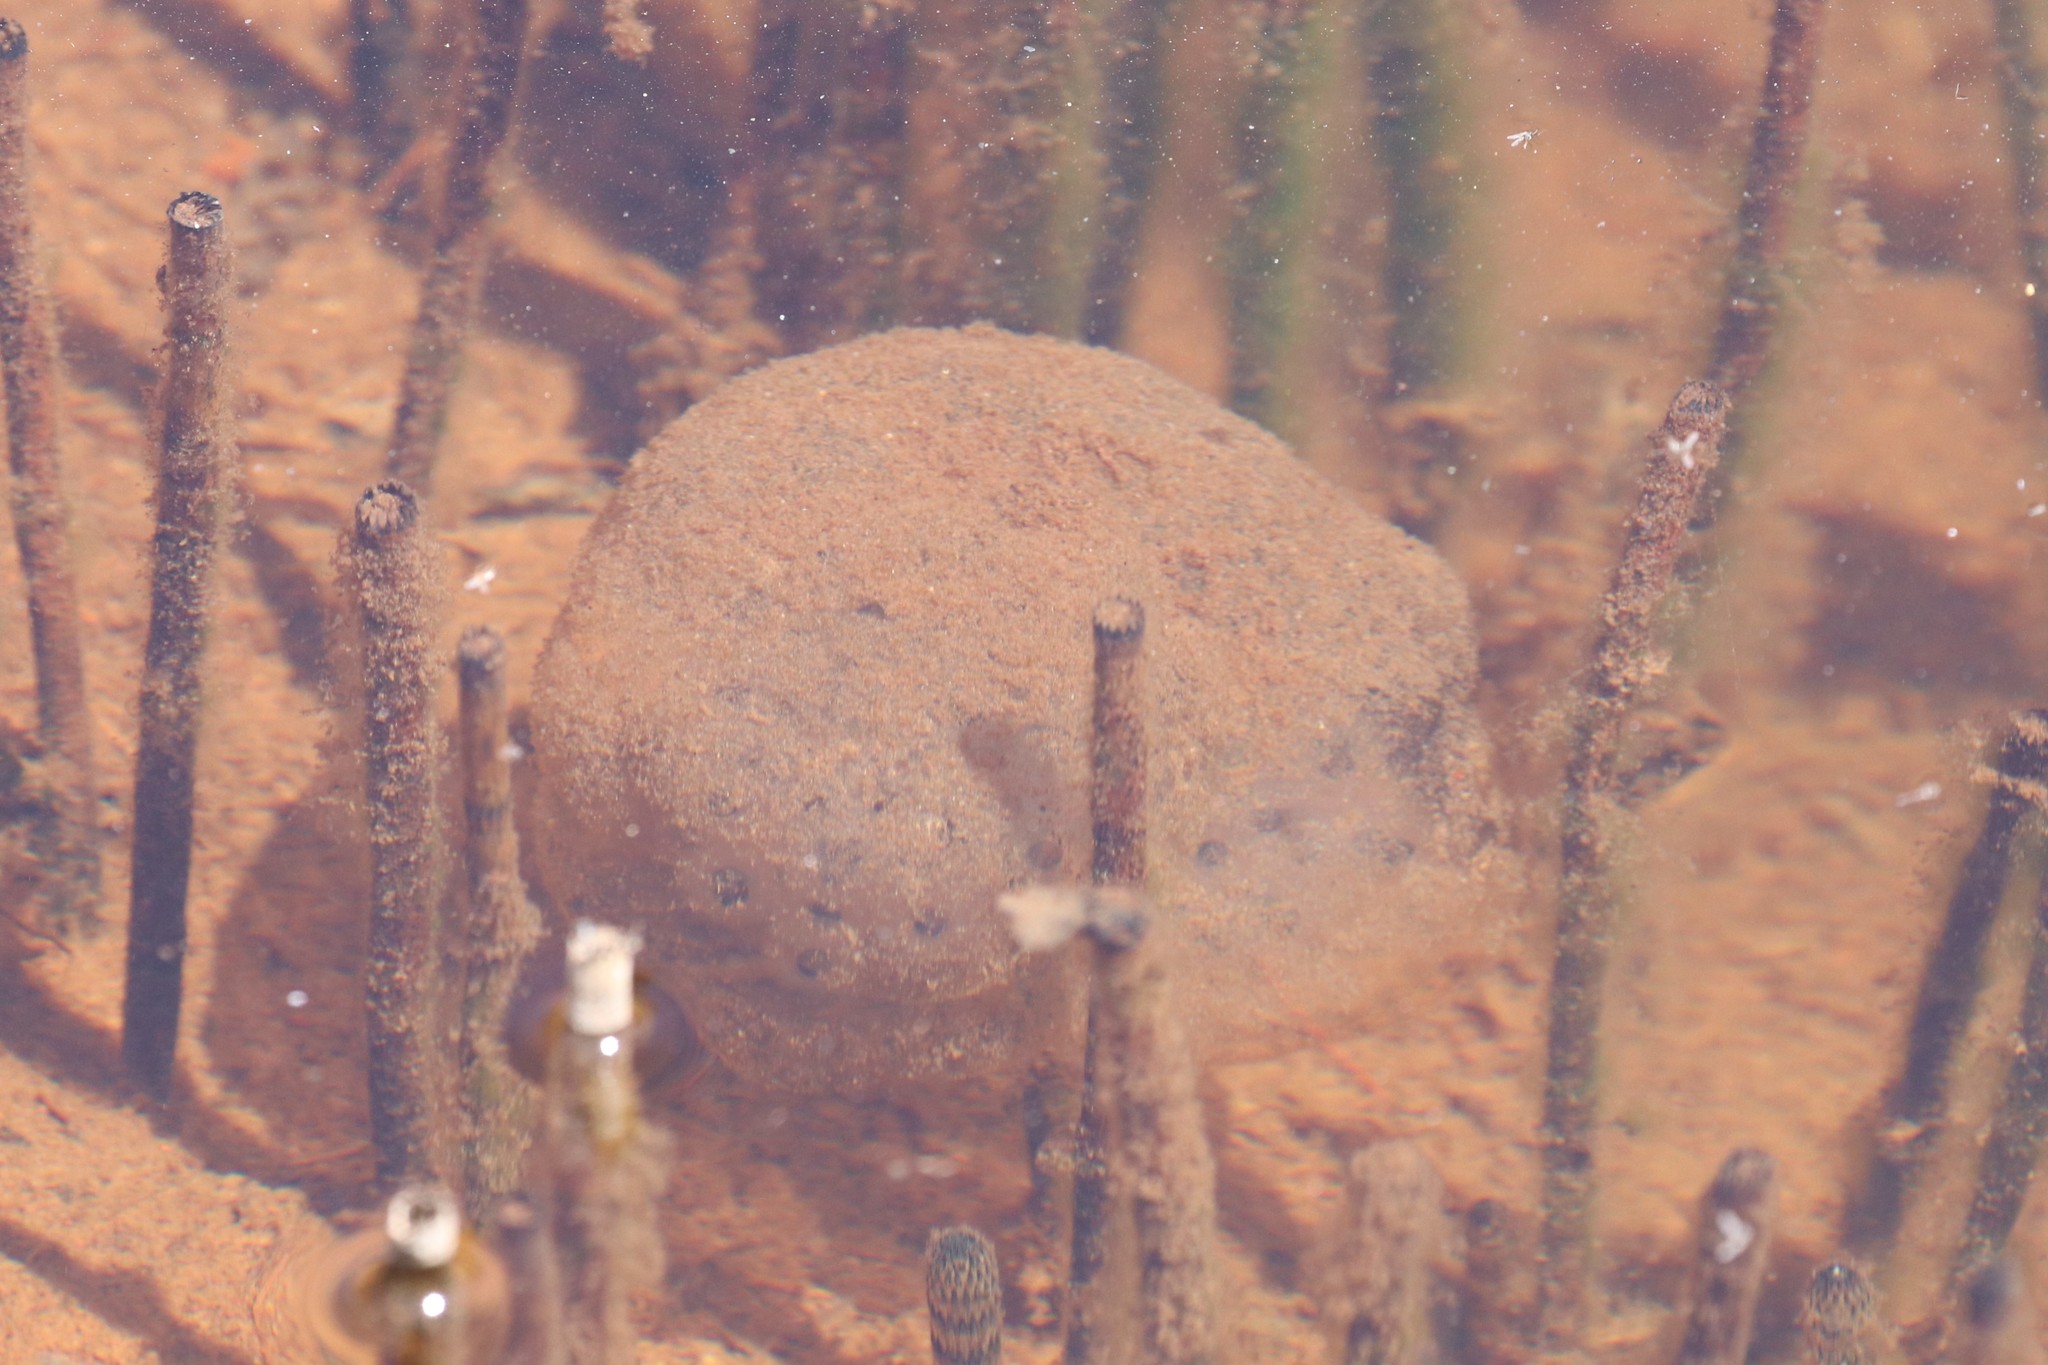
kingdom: Animalia
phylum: Chordata
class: Amphibia
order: Caudata
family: Ambystomatidae
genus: Ambystoma
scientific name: Ambystoma maculatum
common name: Spotted salamander
